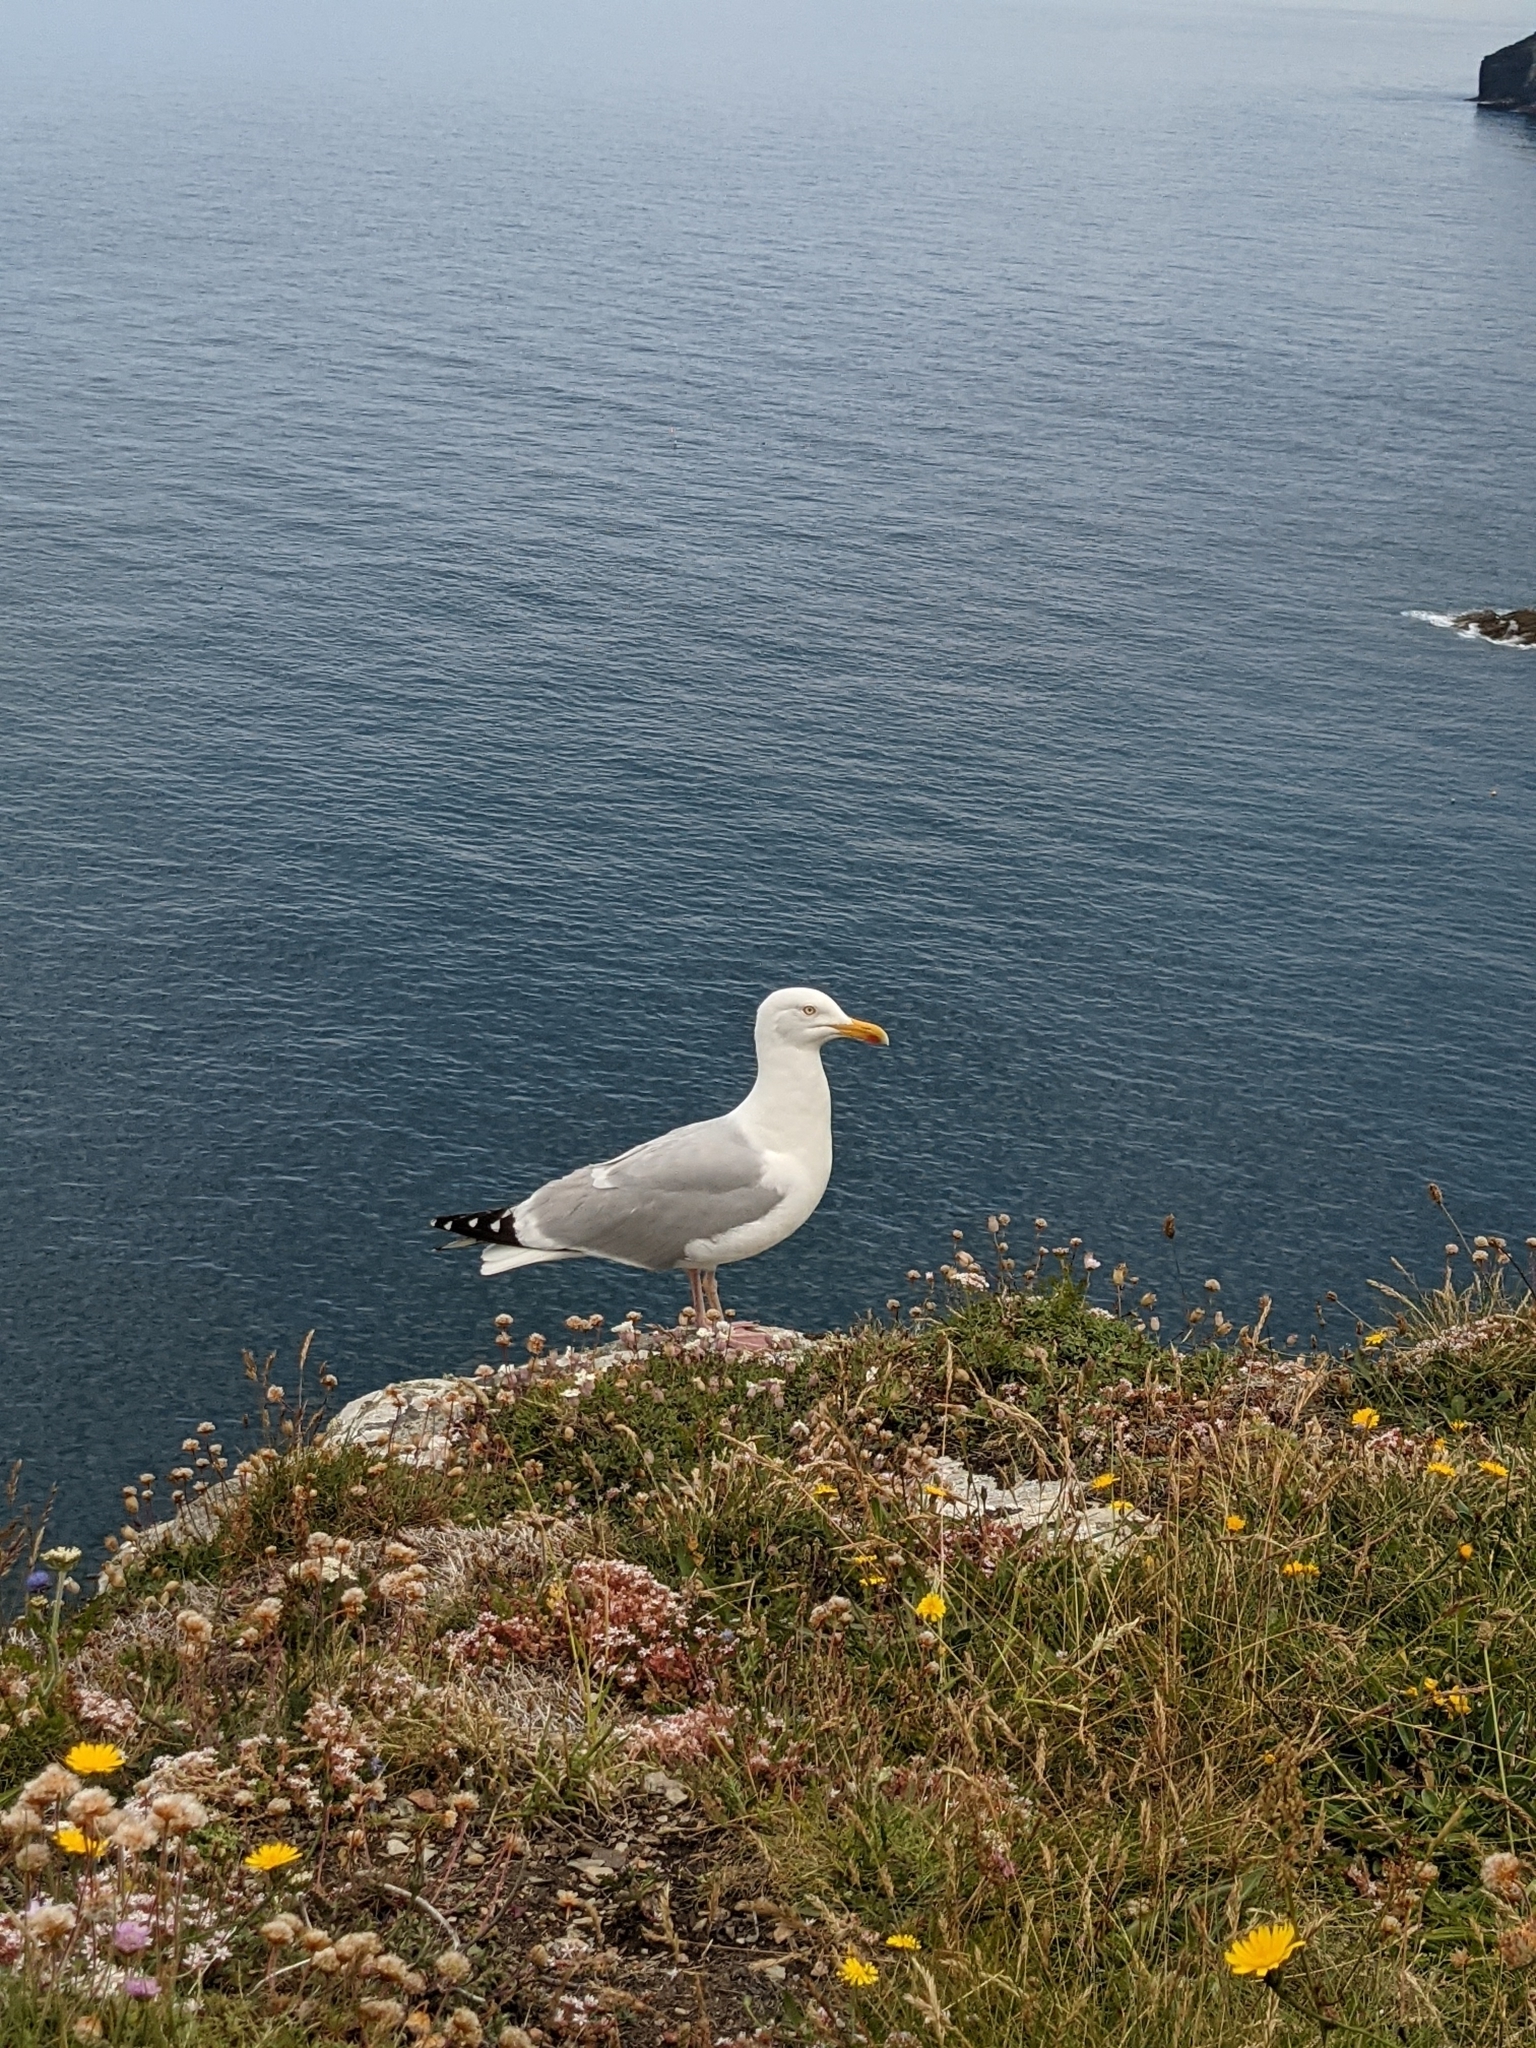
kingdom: Animalia
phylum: Chordata
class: Aves
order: Charadriiformes
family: Laridae
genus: Larus
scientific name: Larus argentatus
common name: Herring gull
